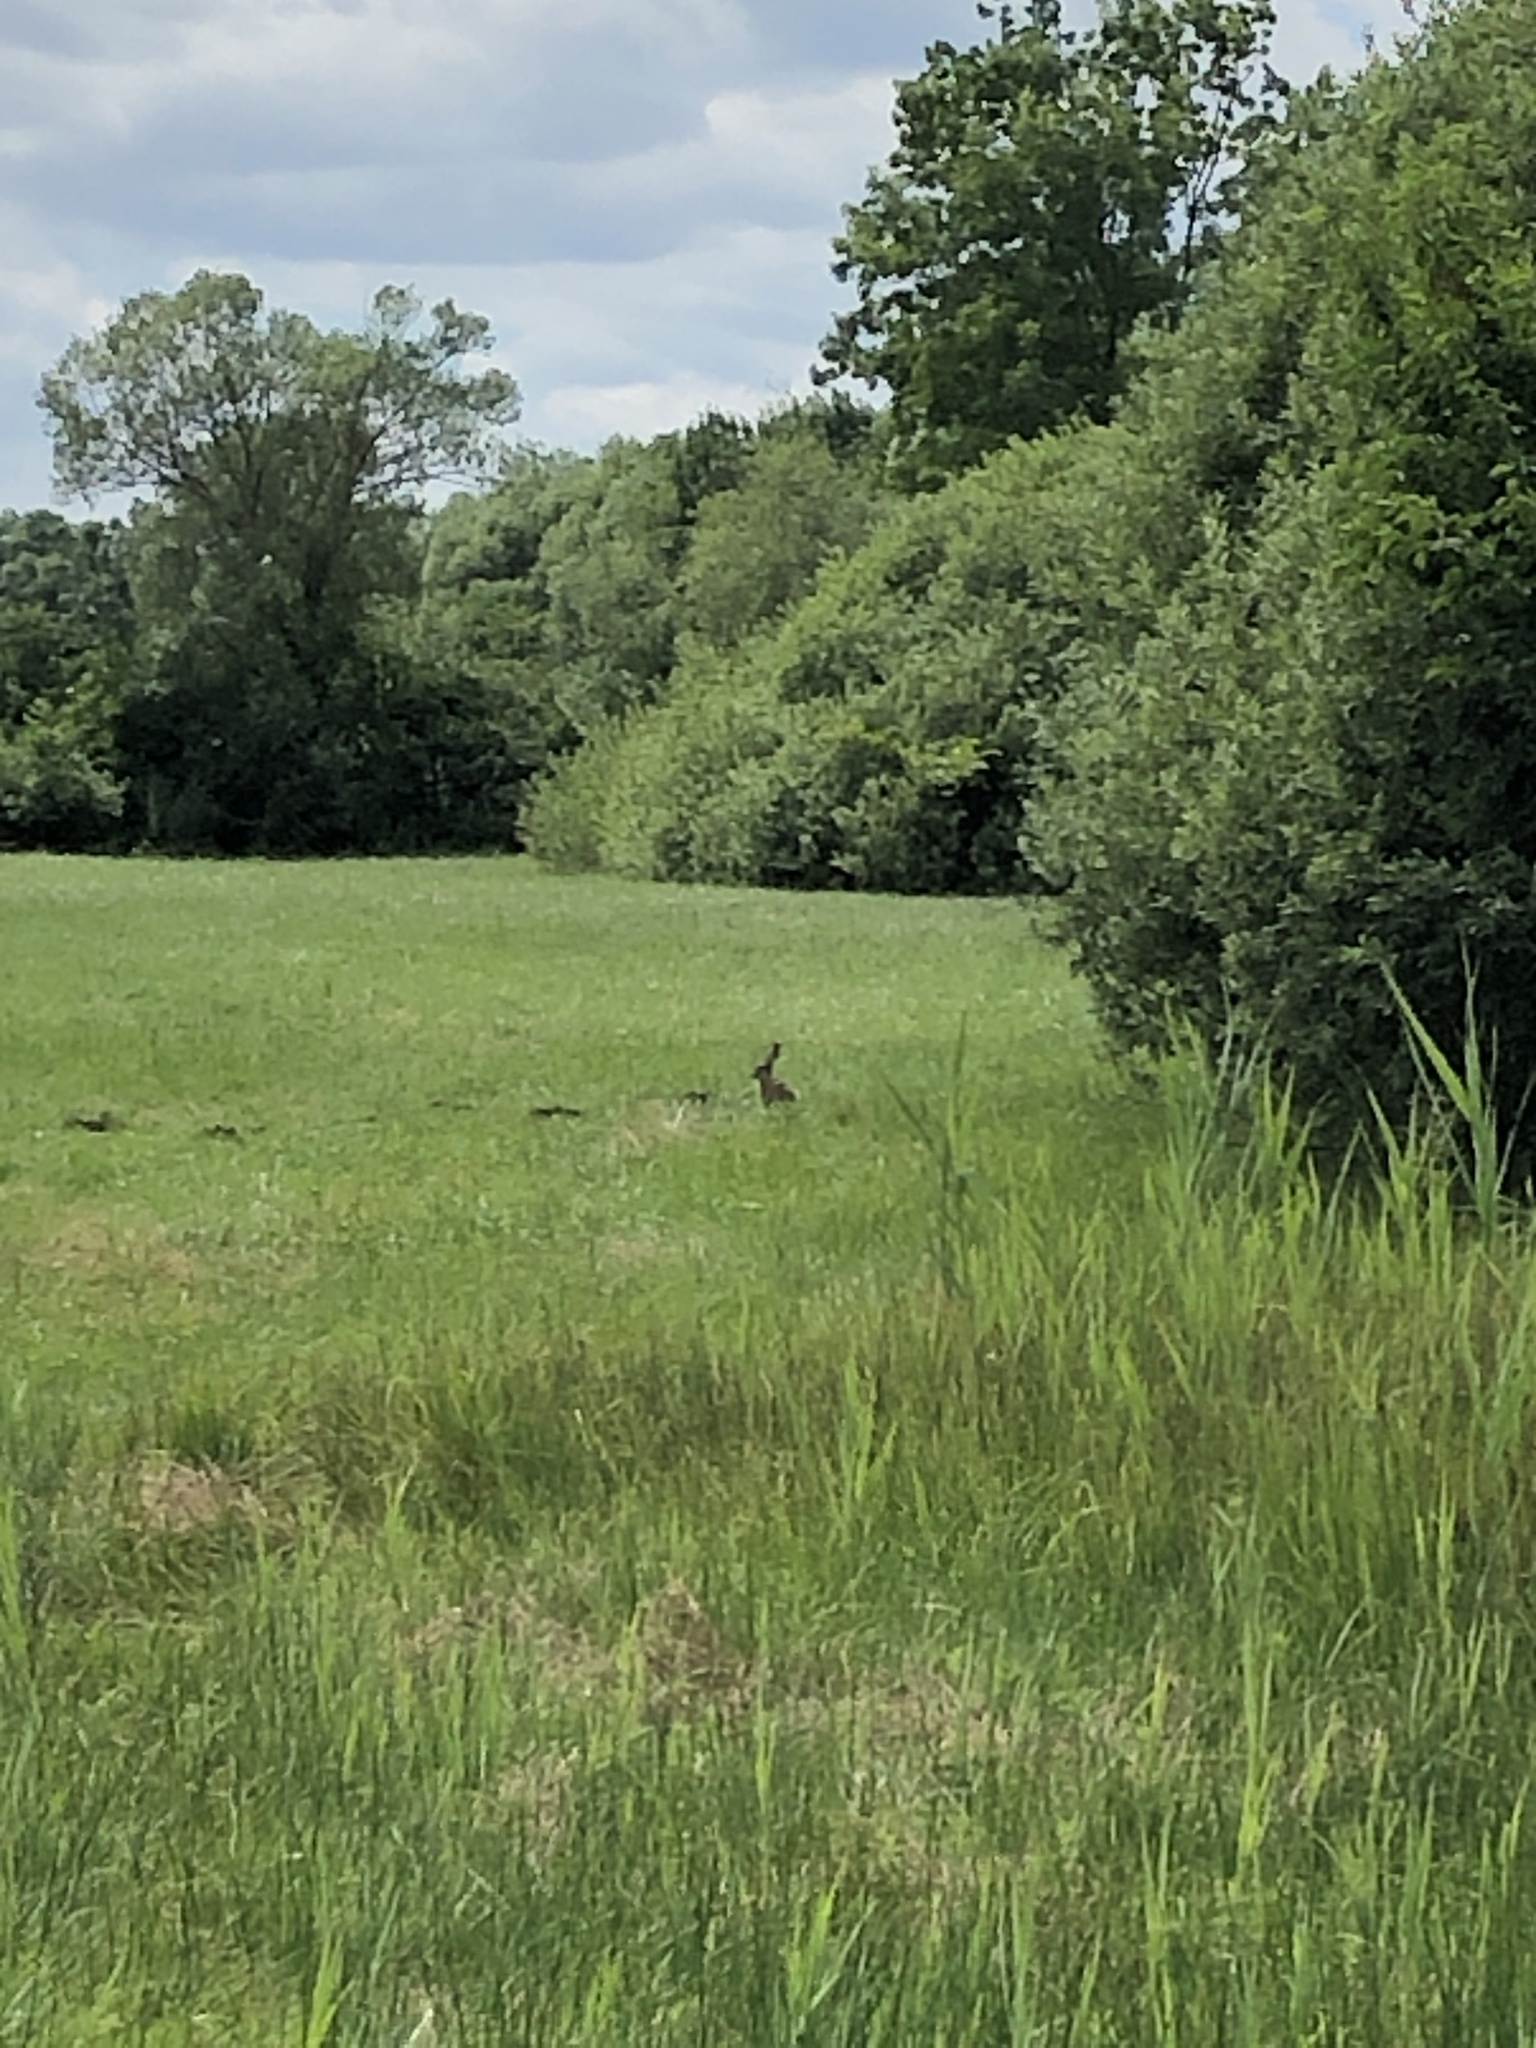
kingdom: Animalia
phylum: Chordata
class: Mammalia
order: Lagomorpha
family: Leporidae
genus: Lepus
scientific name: Lepus europaeus
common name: European hare
